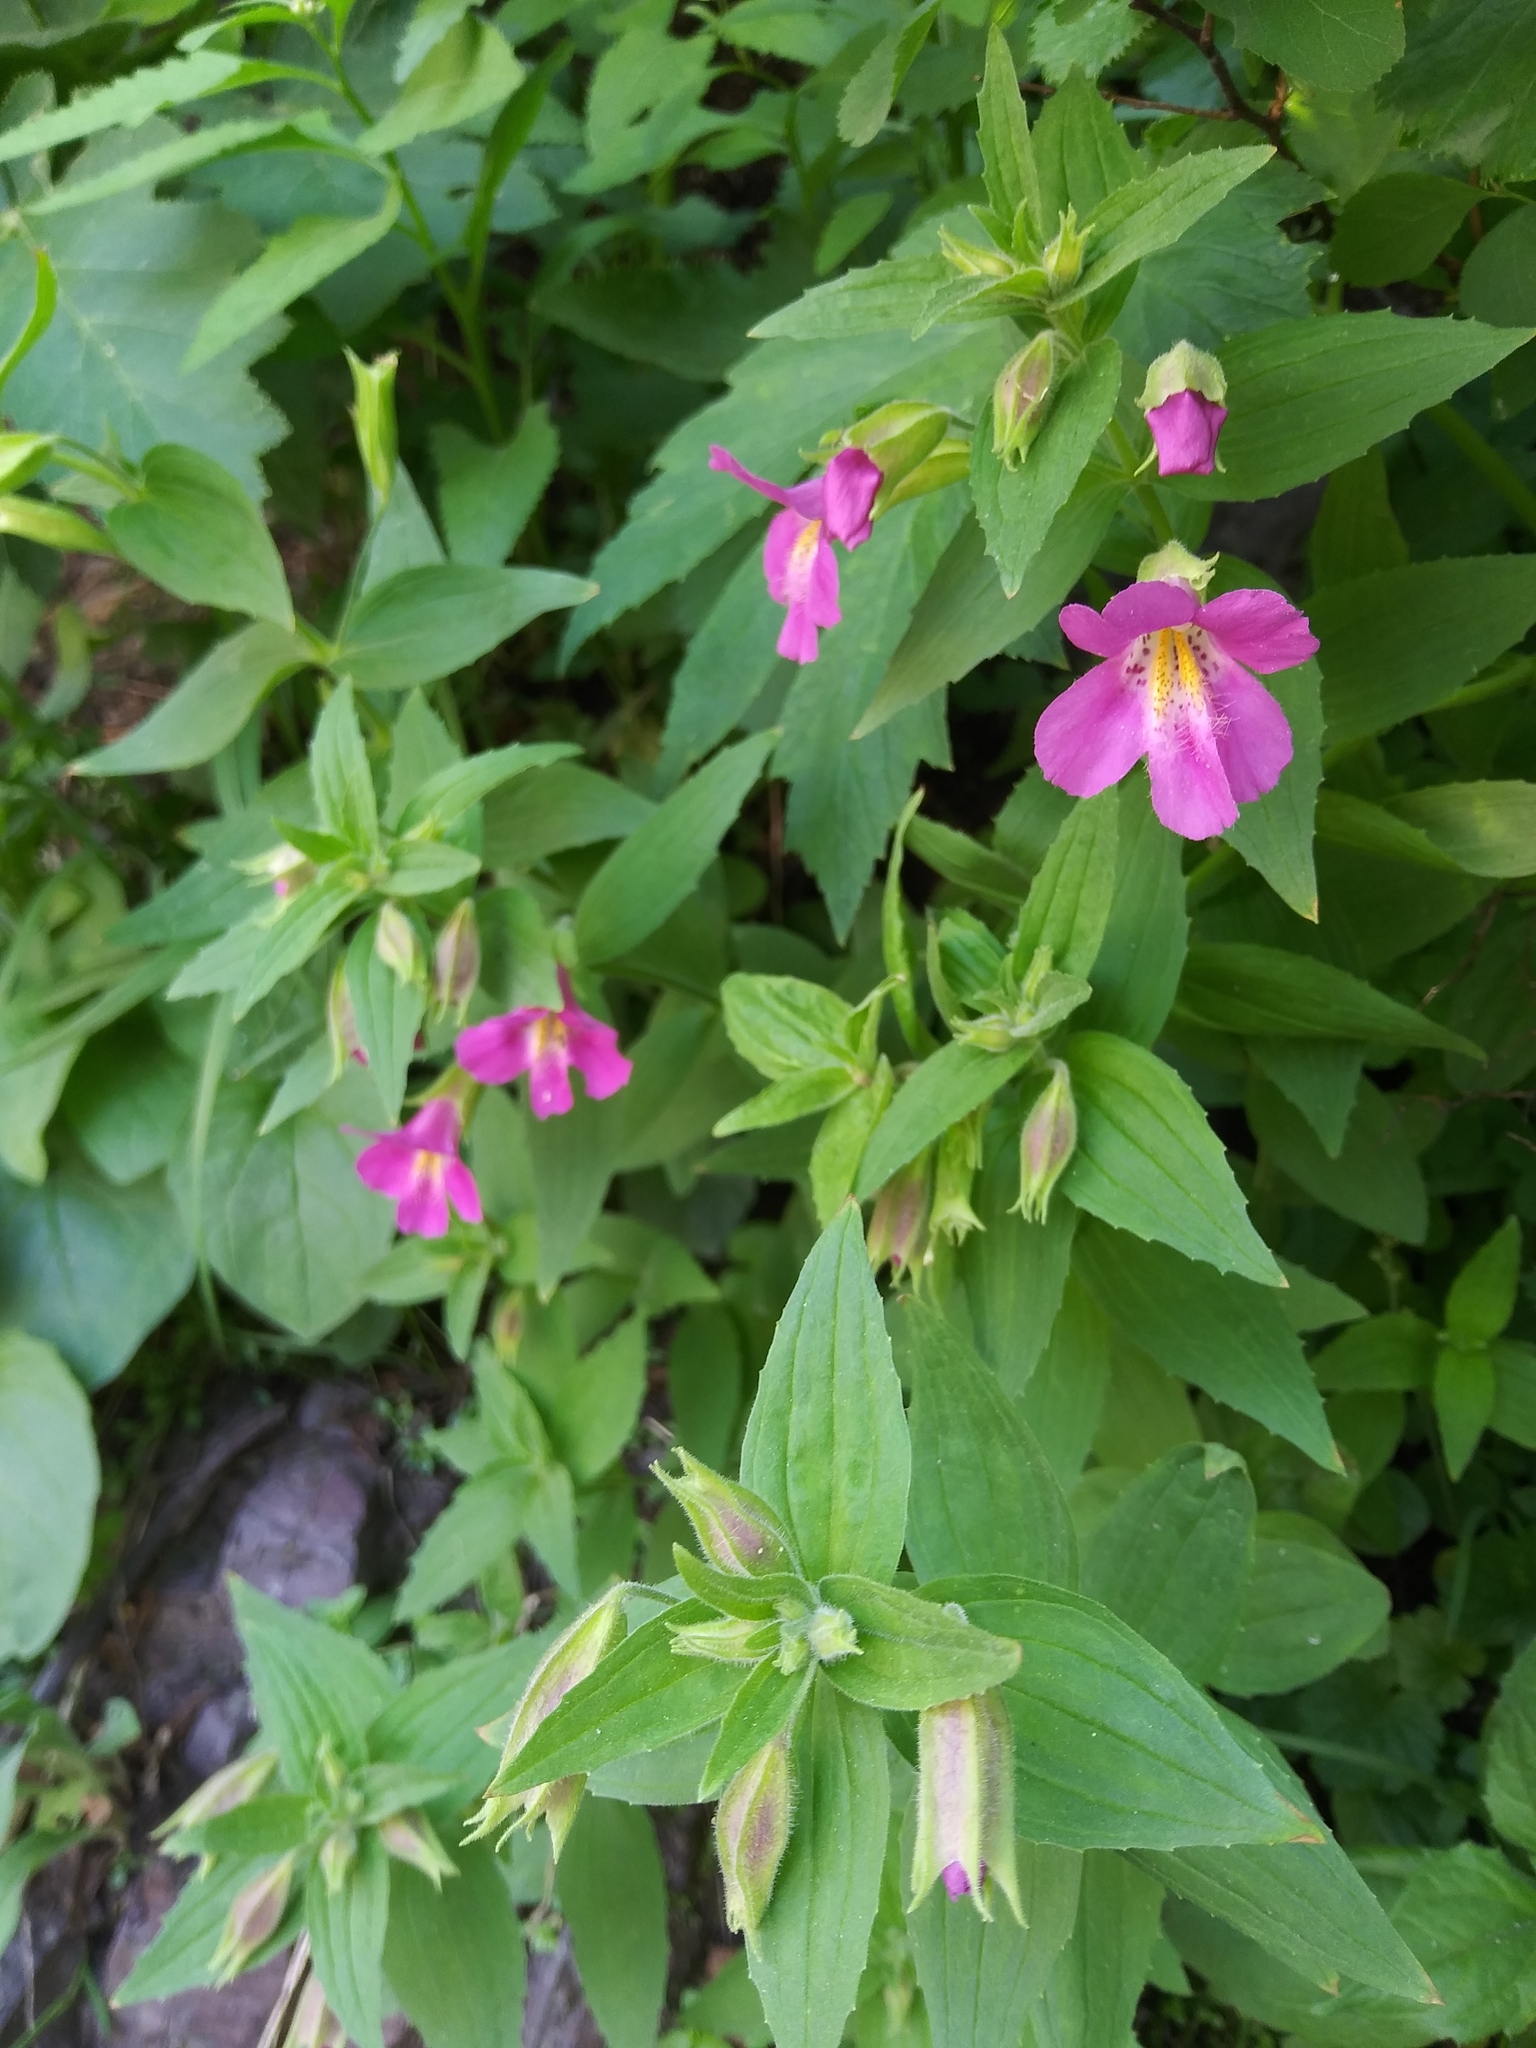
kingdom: Plantae
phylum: Tracheophyta
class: Magnoliopsida
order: Lamiales
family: Phrymaceae
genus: Erythranthe
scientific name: Erythranthe lewisii
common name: Lewis's monkey-flower
